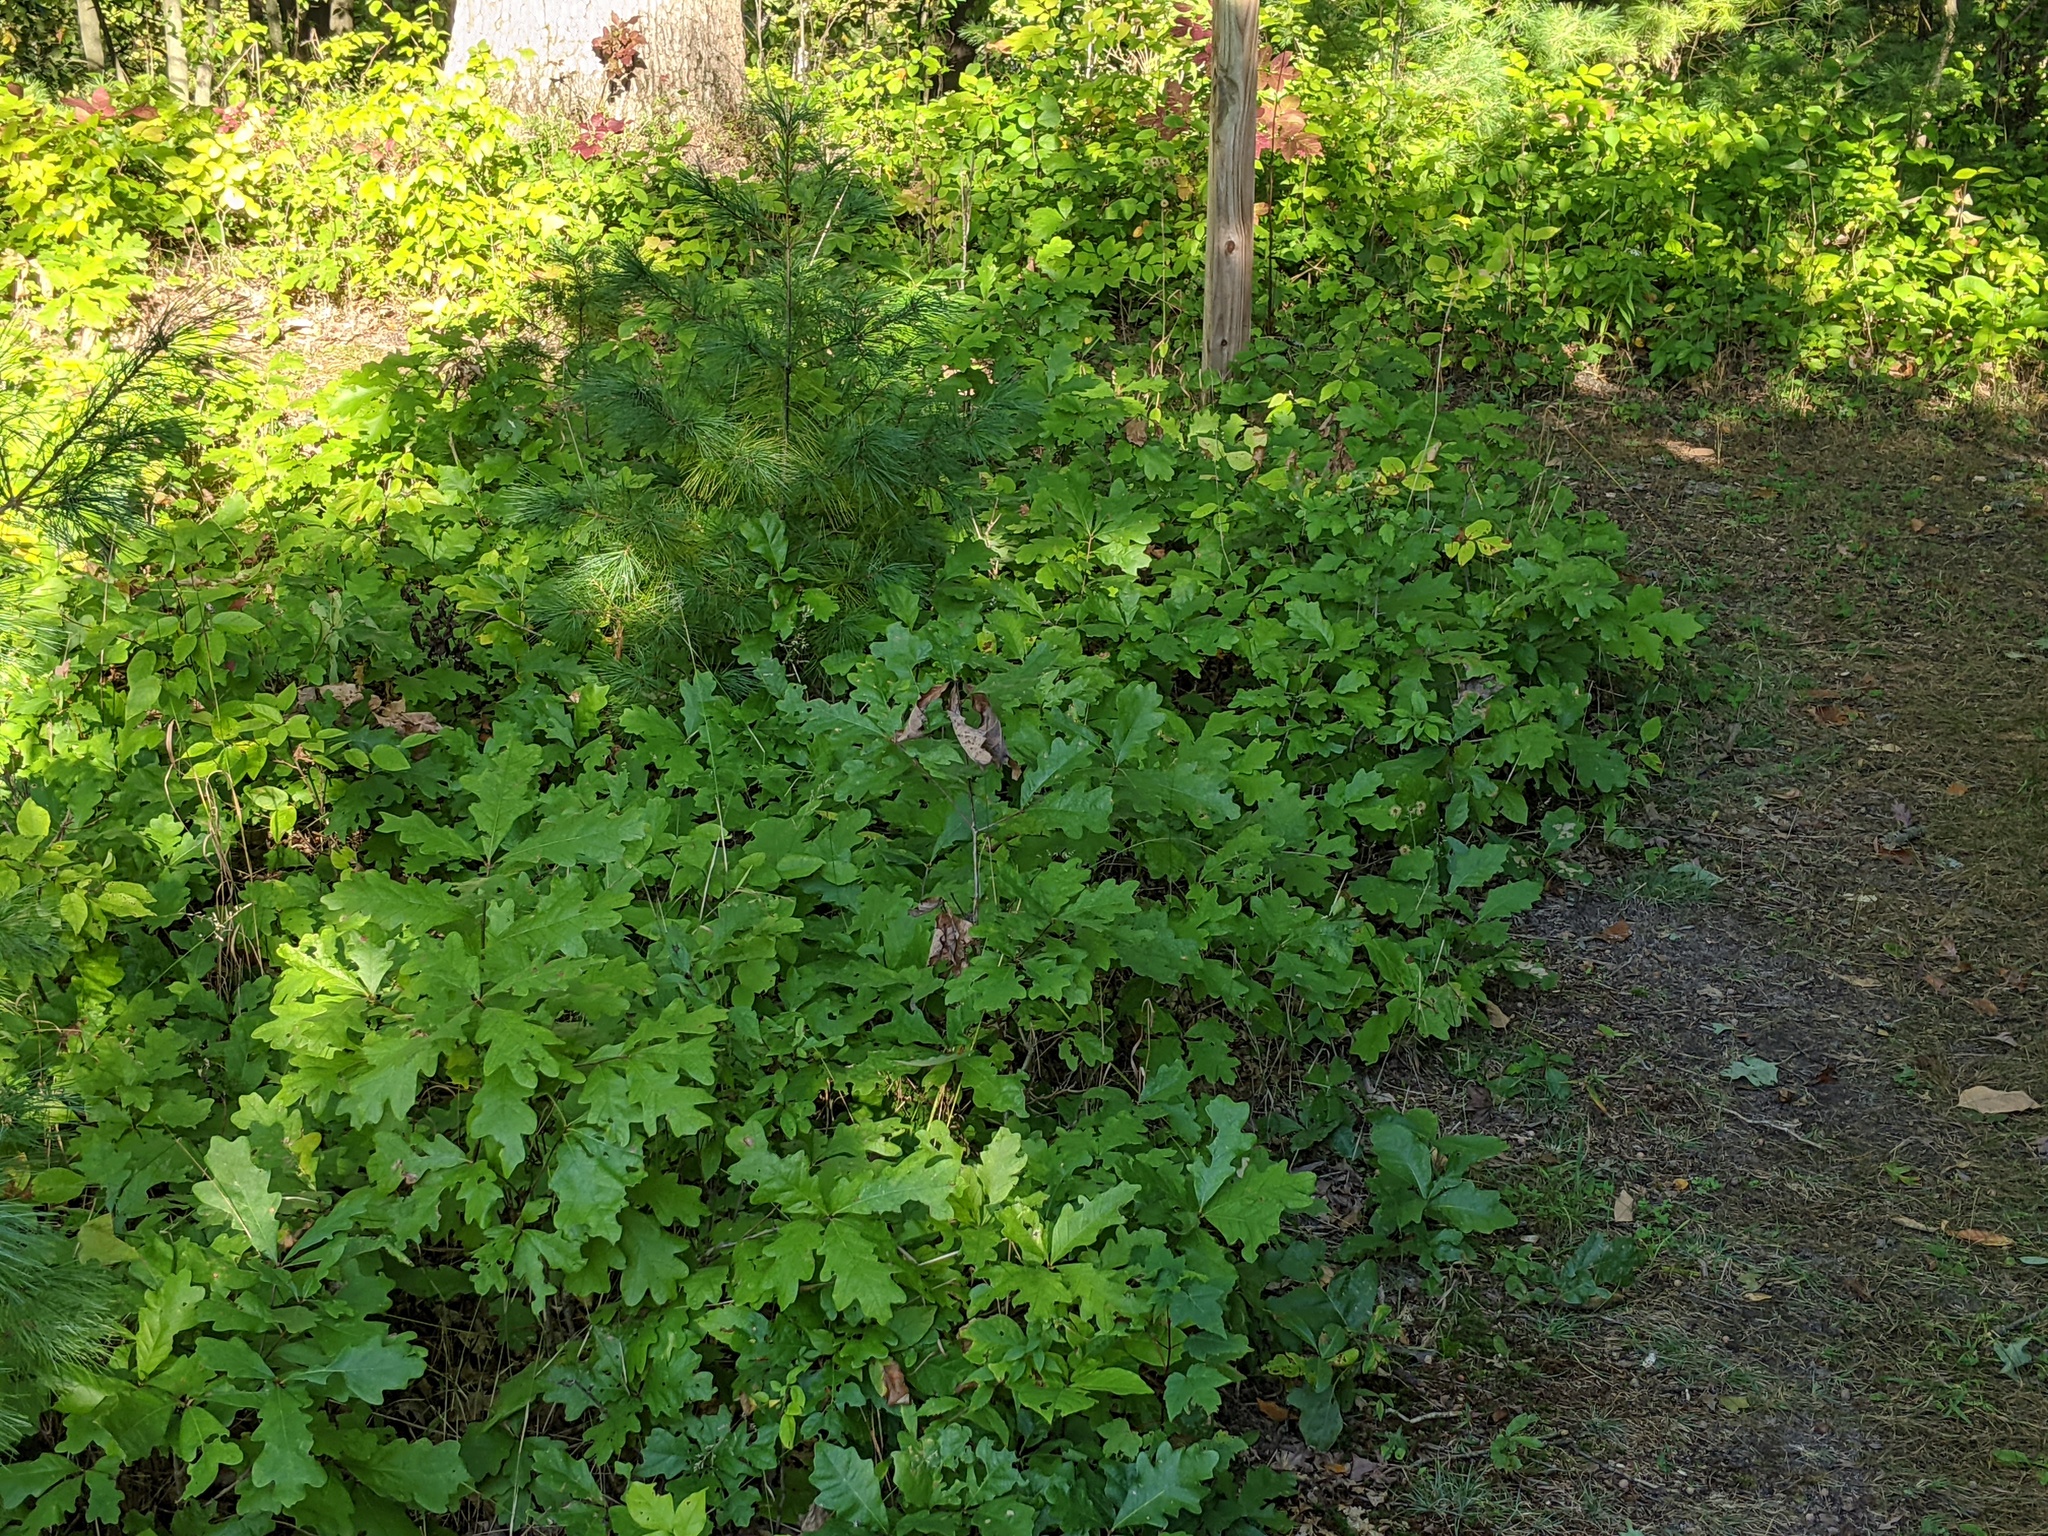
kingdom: Plantae
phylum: Tracheophyta
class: Magnoliopsida
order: Fagales
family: Fagaceae
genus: Quercus
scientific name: Quercus alba
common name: White oak
